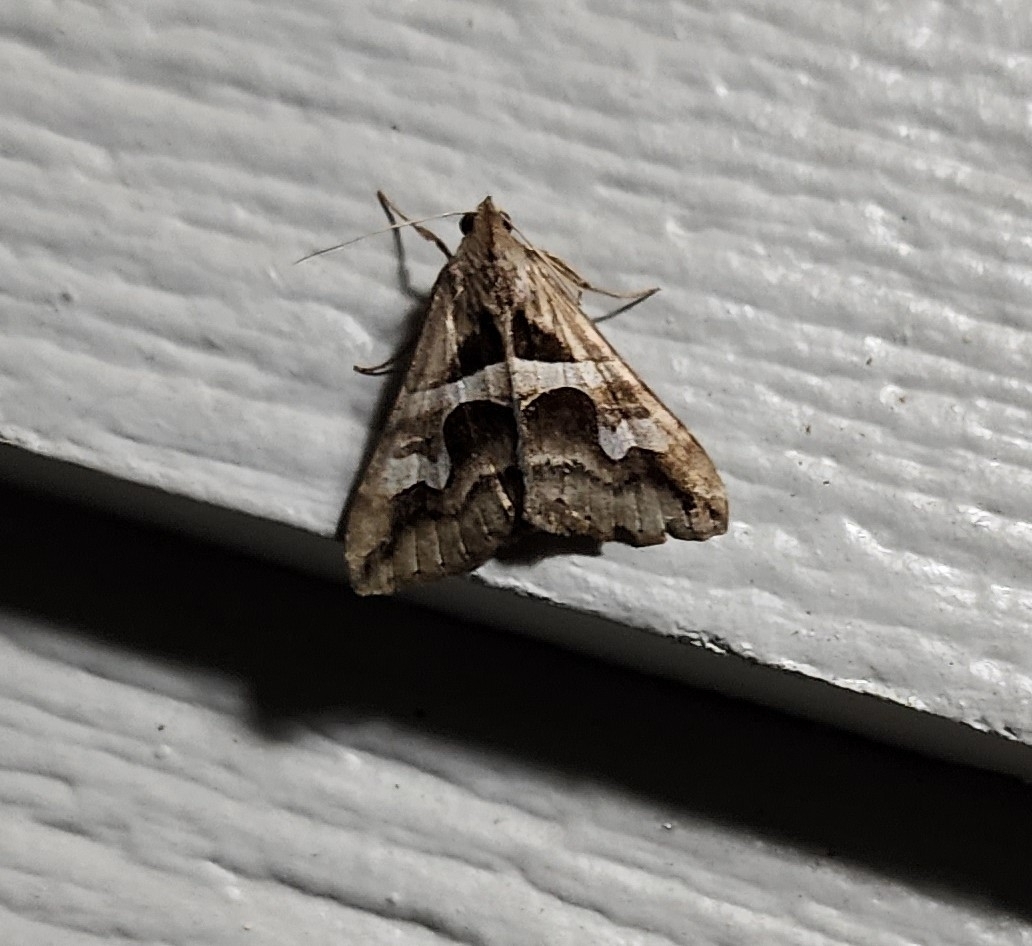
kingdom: Animalia
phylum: Arthropoda
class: Insecta
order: Lepidoptera
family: Erebidae
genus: Melipotis
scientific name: Melipotis cellaris
